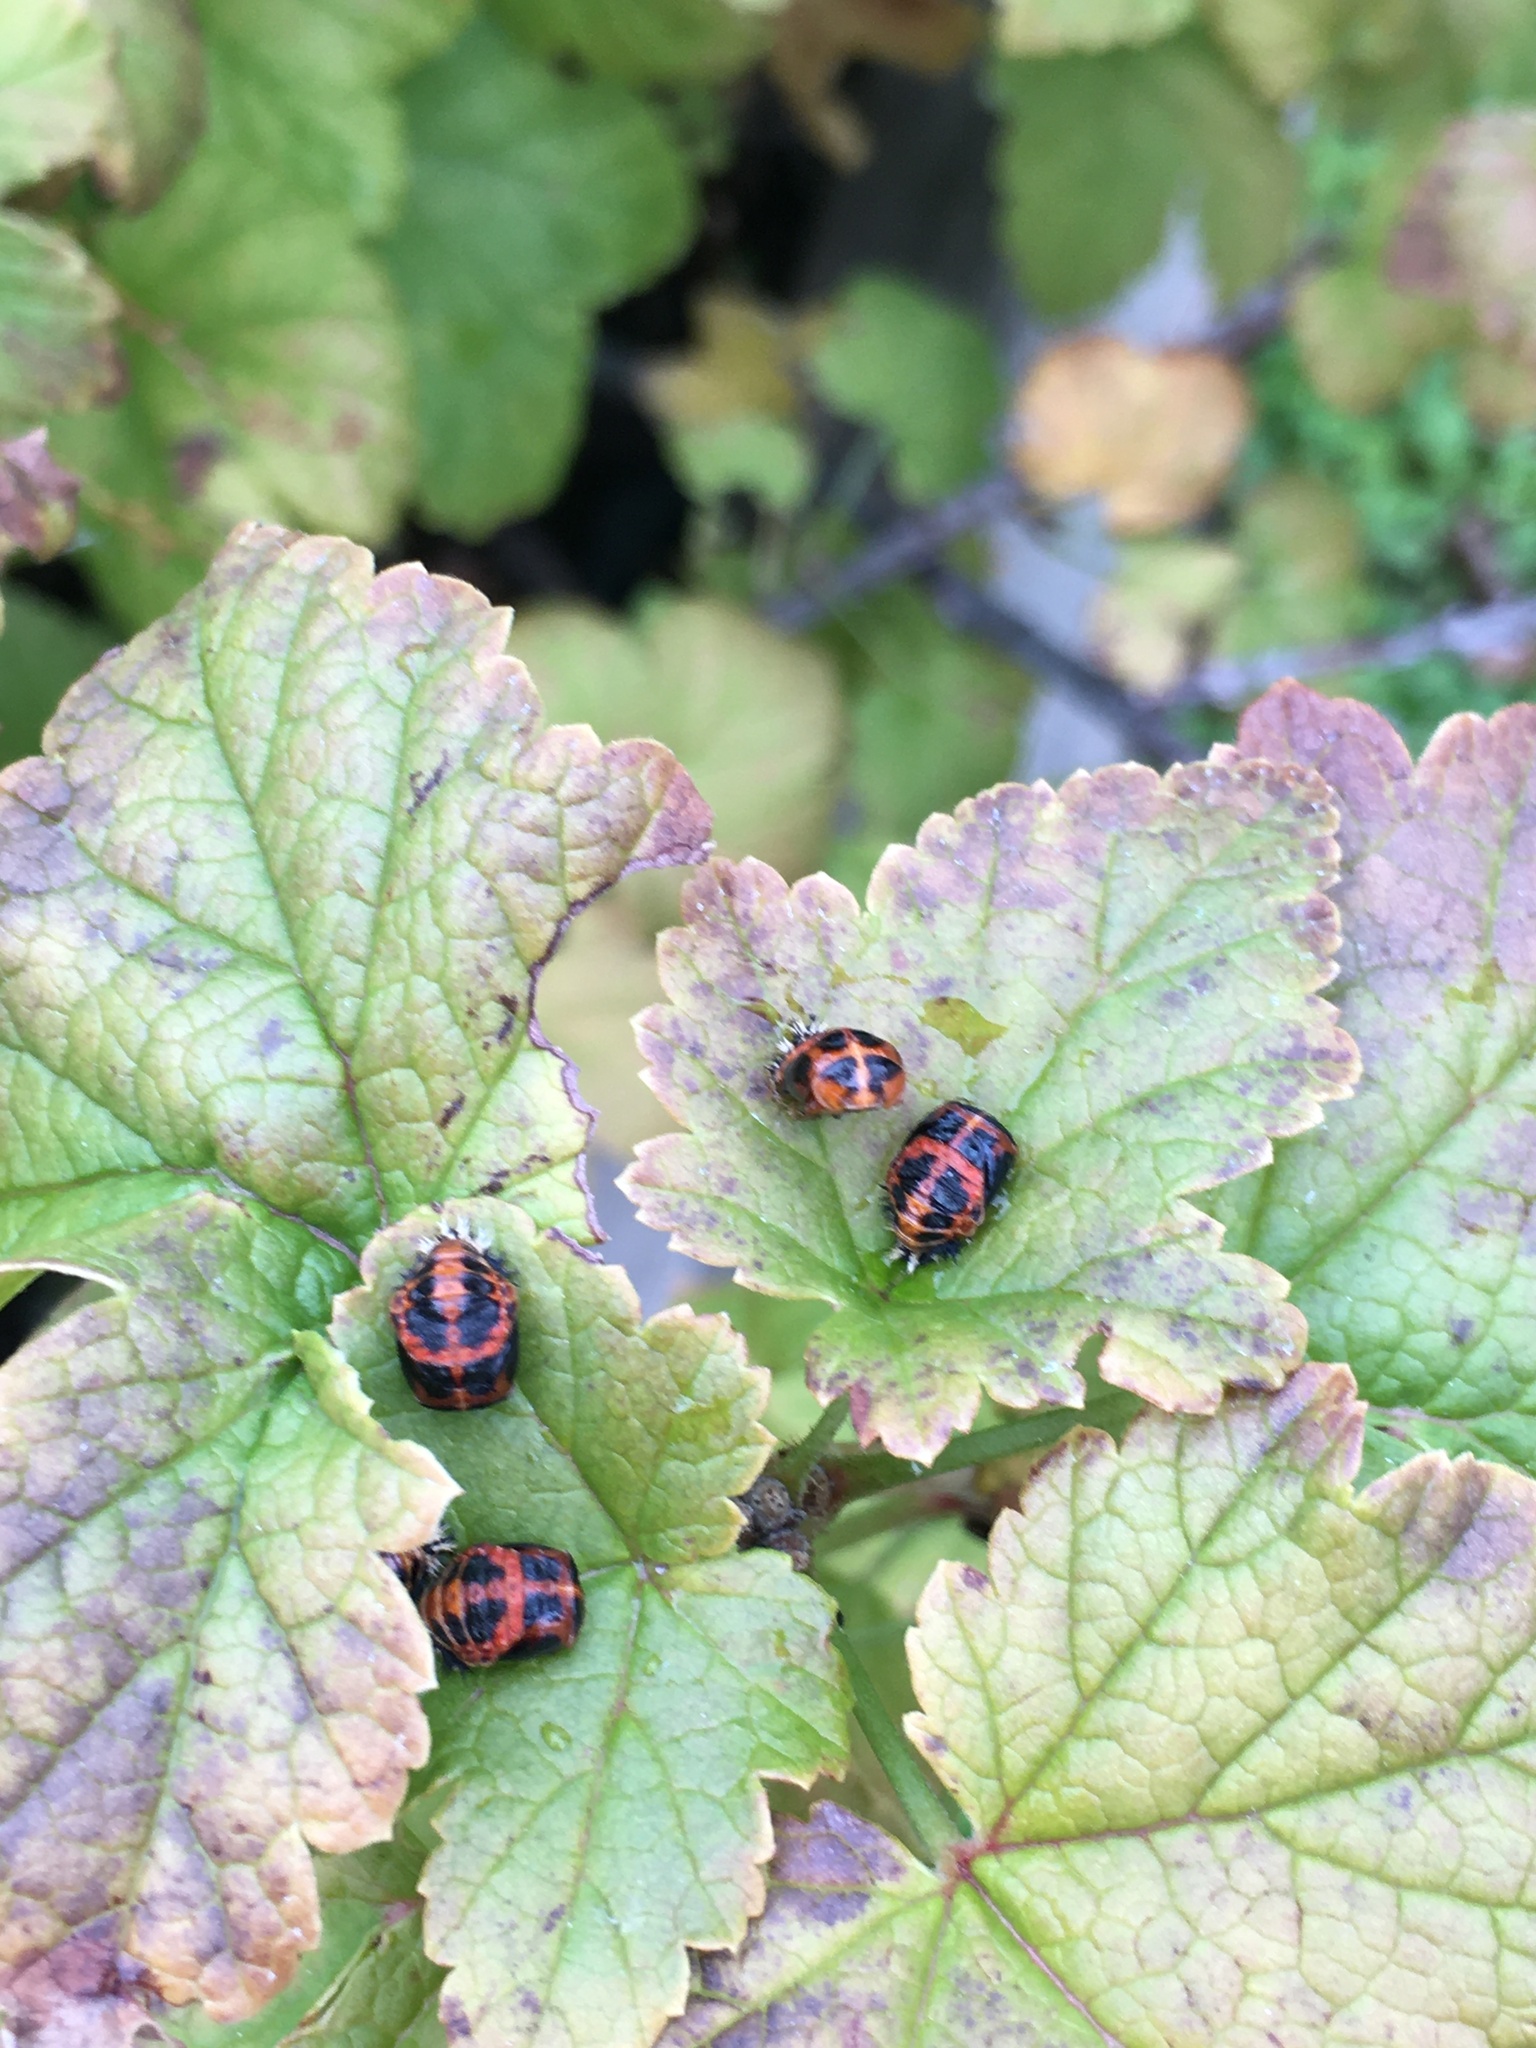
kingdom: Animalia
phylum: Arthropoda
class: Insecta
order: Coleoptera
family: Coccinellidae
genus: Harmonia
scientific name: Harmonia axyridis
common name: Harlequin ladybird
